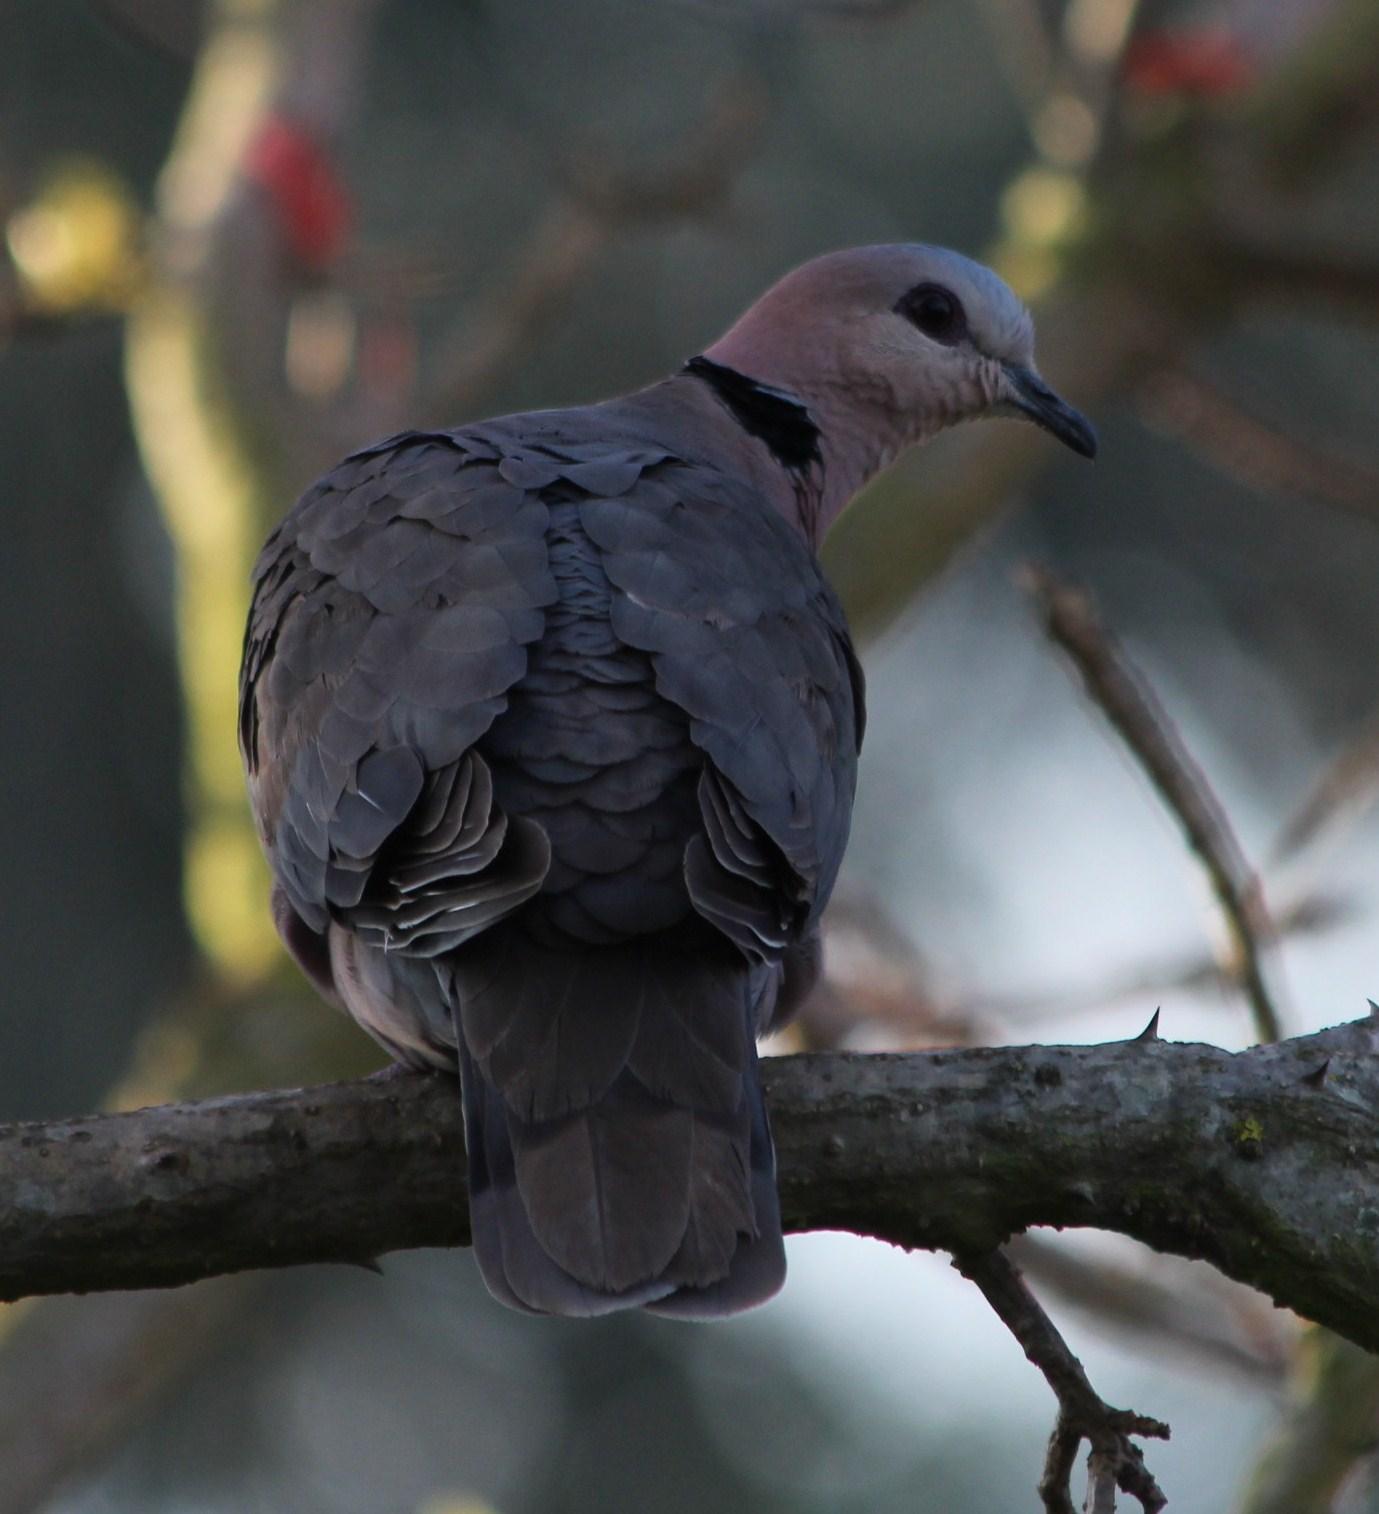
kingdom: Animalia
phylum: Chordata
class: Aves
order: Columbiformes
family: Columbidae
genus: Streptopelia
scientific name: Streptopelia semitorquata
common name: Red-eyed dove
